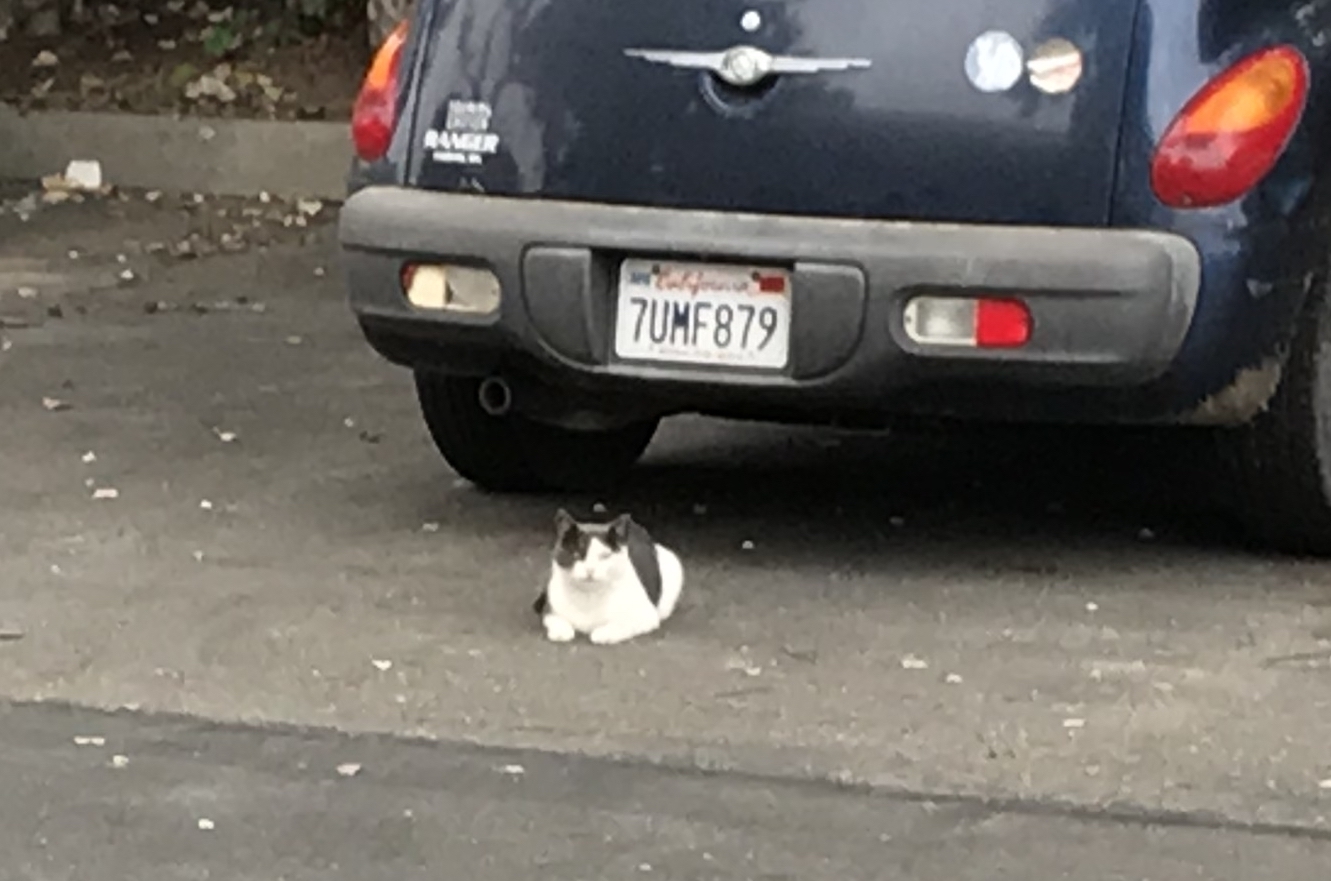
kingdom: Animalia
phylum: Chordata
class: Mammalia
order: Carnivora
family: Felidae
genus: Felis
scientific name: Felis catus
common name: Domestic cat
